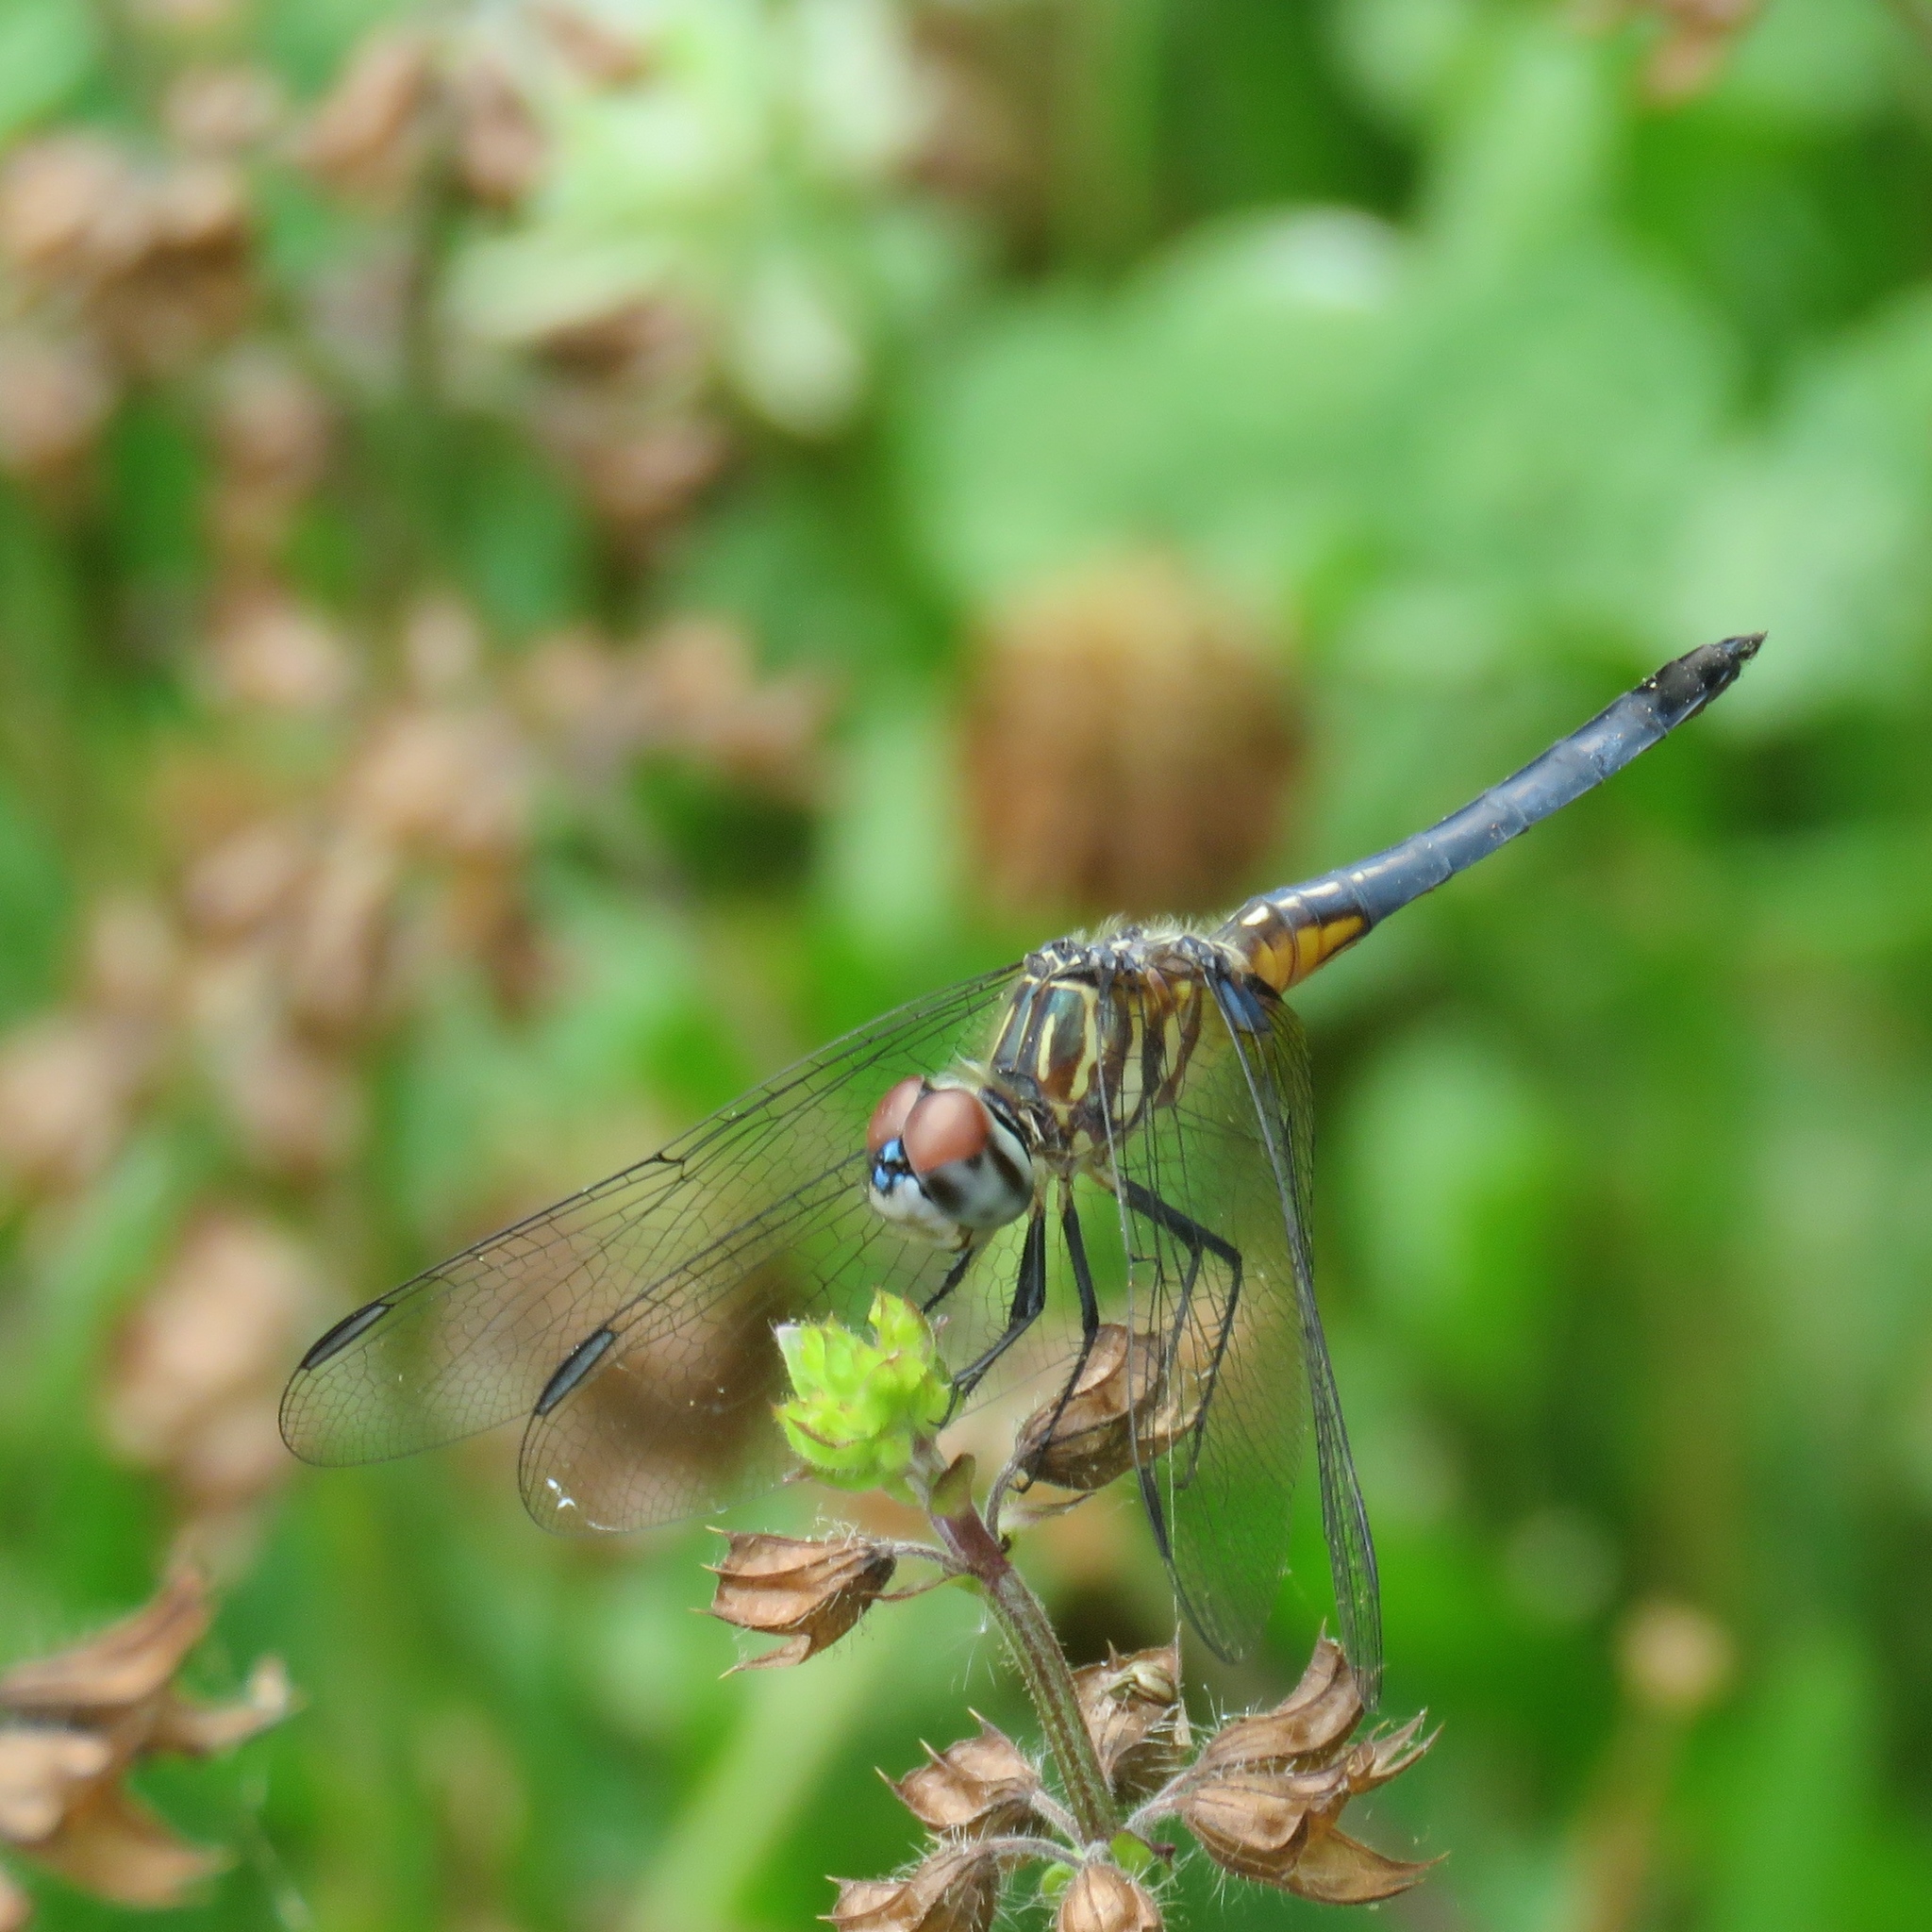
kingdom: Animalia
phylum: Arthropoda
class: Insecta
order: Odonata
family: Libellulidae
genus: Pachydiplax
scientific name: Pachydiplax longipennis
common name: Blue dasher
